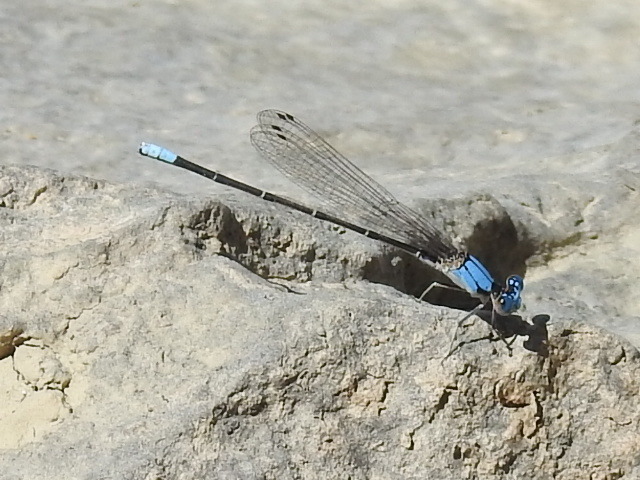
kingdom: Animalia
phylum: Arthropoda
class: Insecta
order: Odonata
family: Coenagrionidae
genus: Argia
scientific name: Argia apicalis
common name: Blue-fronted dancer
